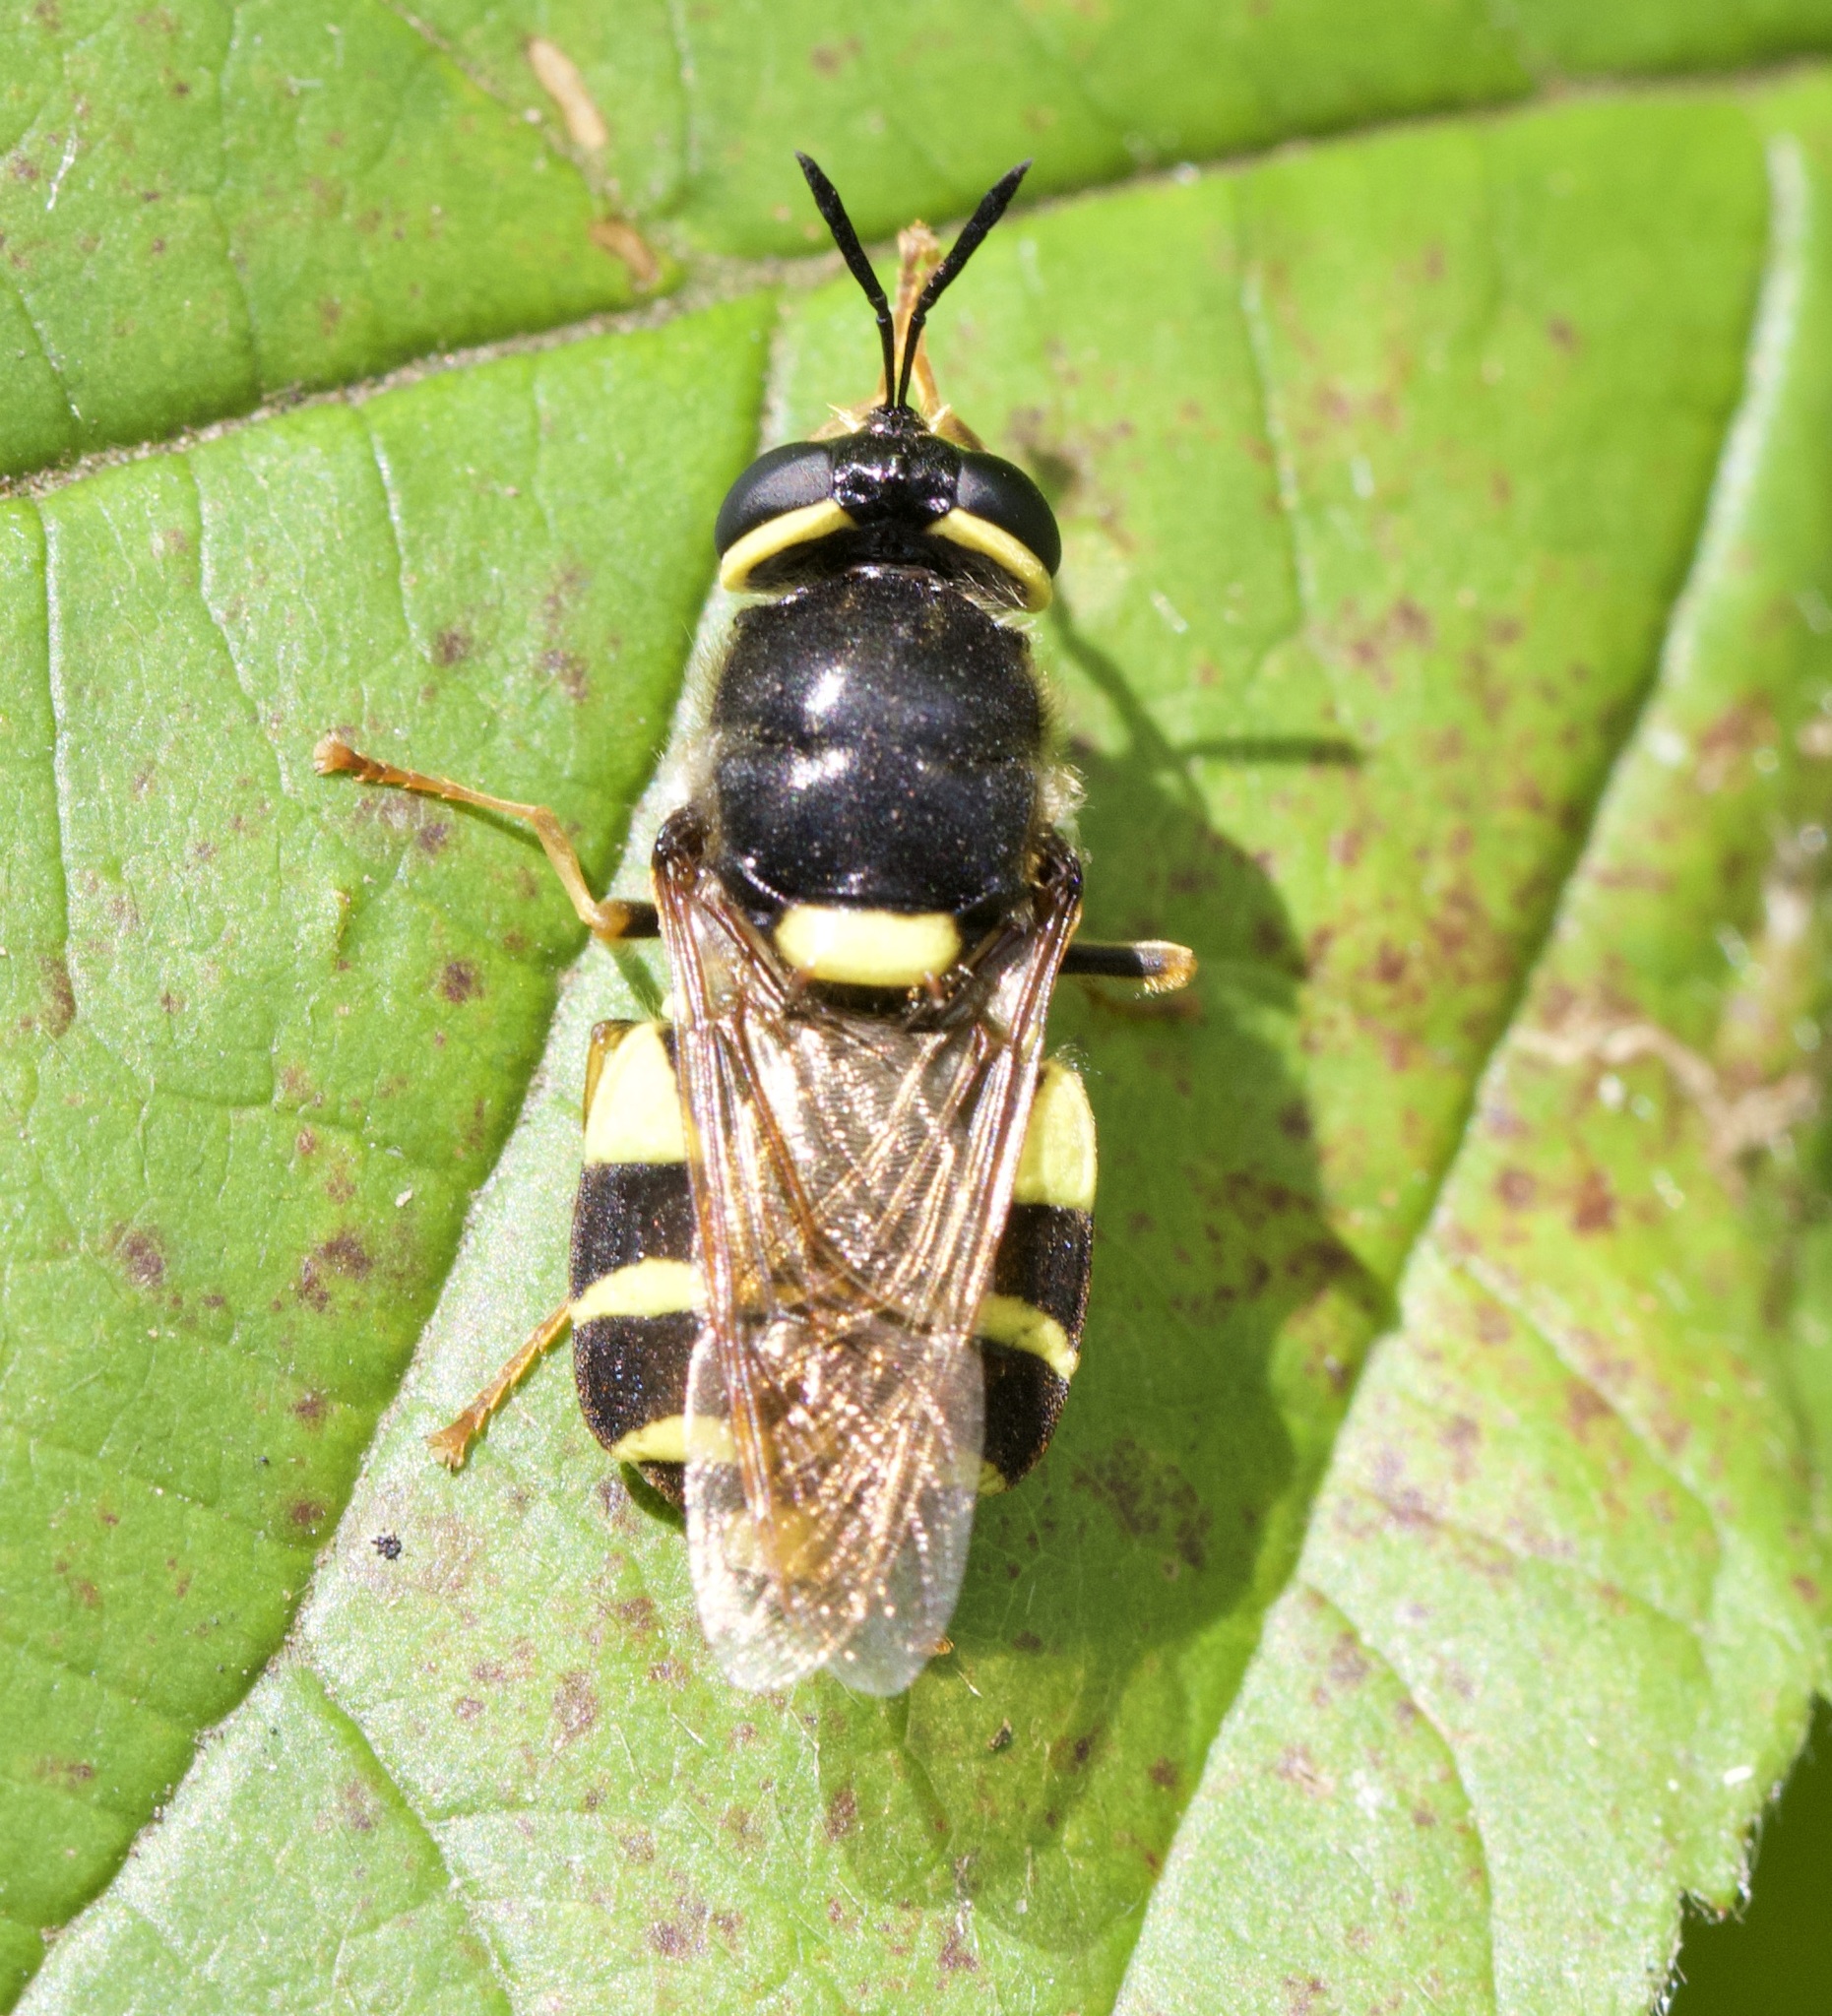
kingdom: Animalia
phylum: Arthropoda
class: Insecta
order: Diptera
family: Stratiomyidae
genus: Stratiomys
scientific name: Stratiomys potamida
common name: Banded general
